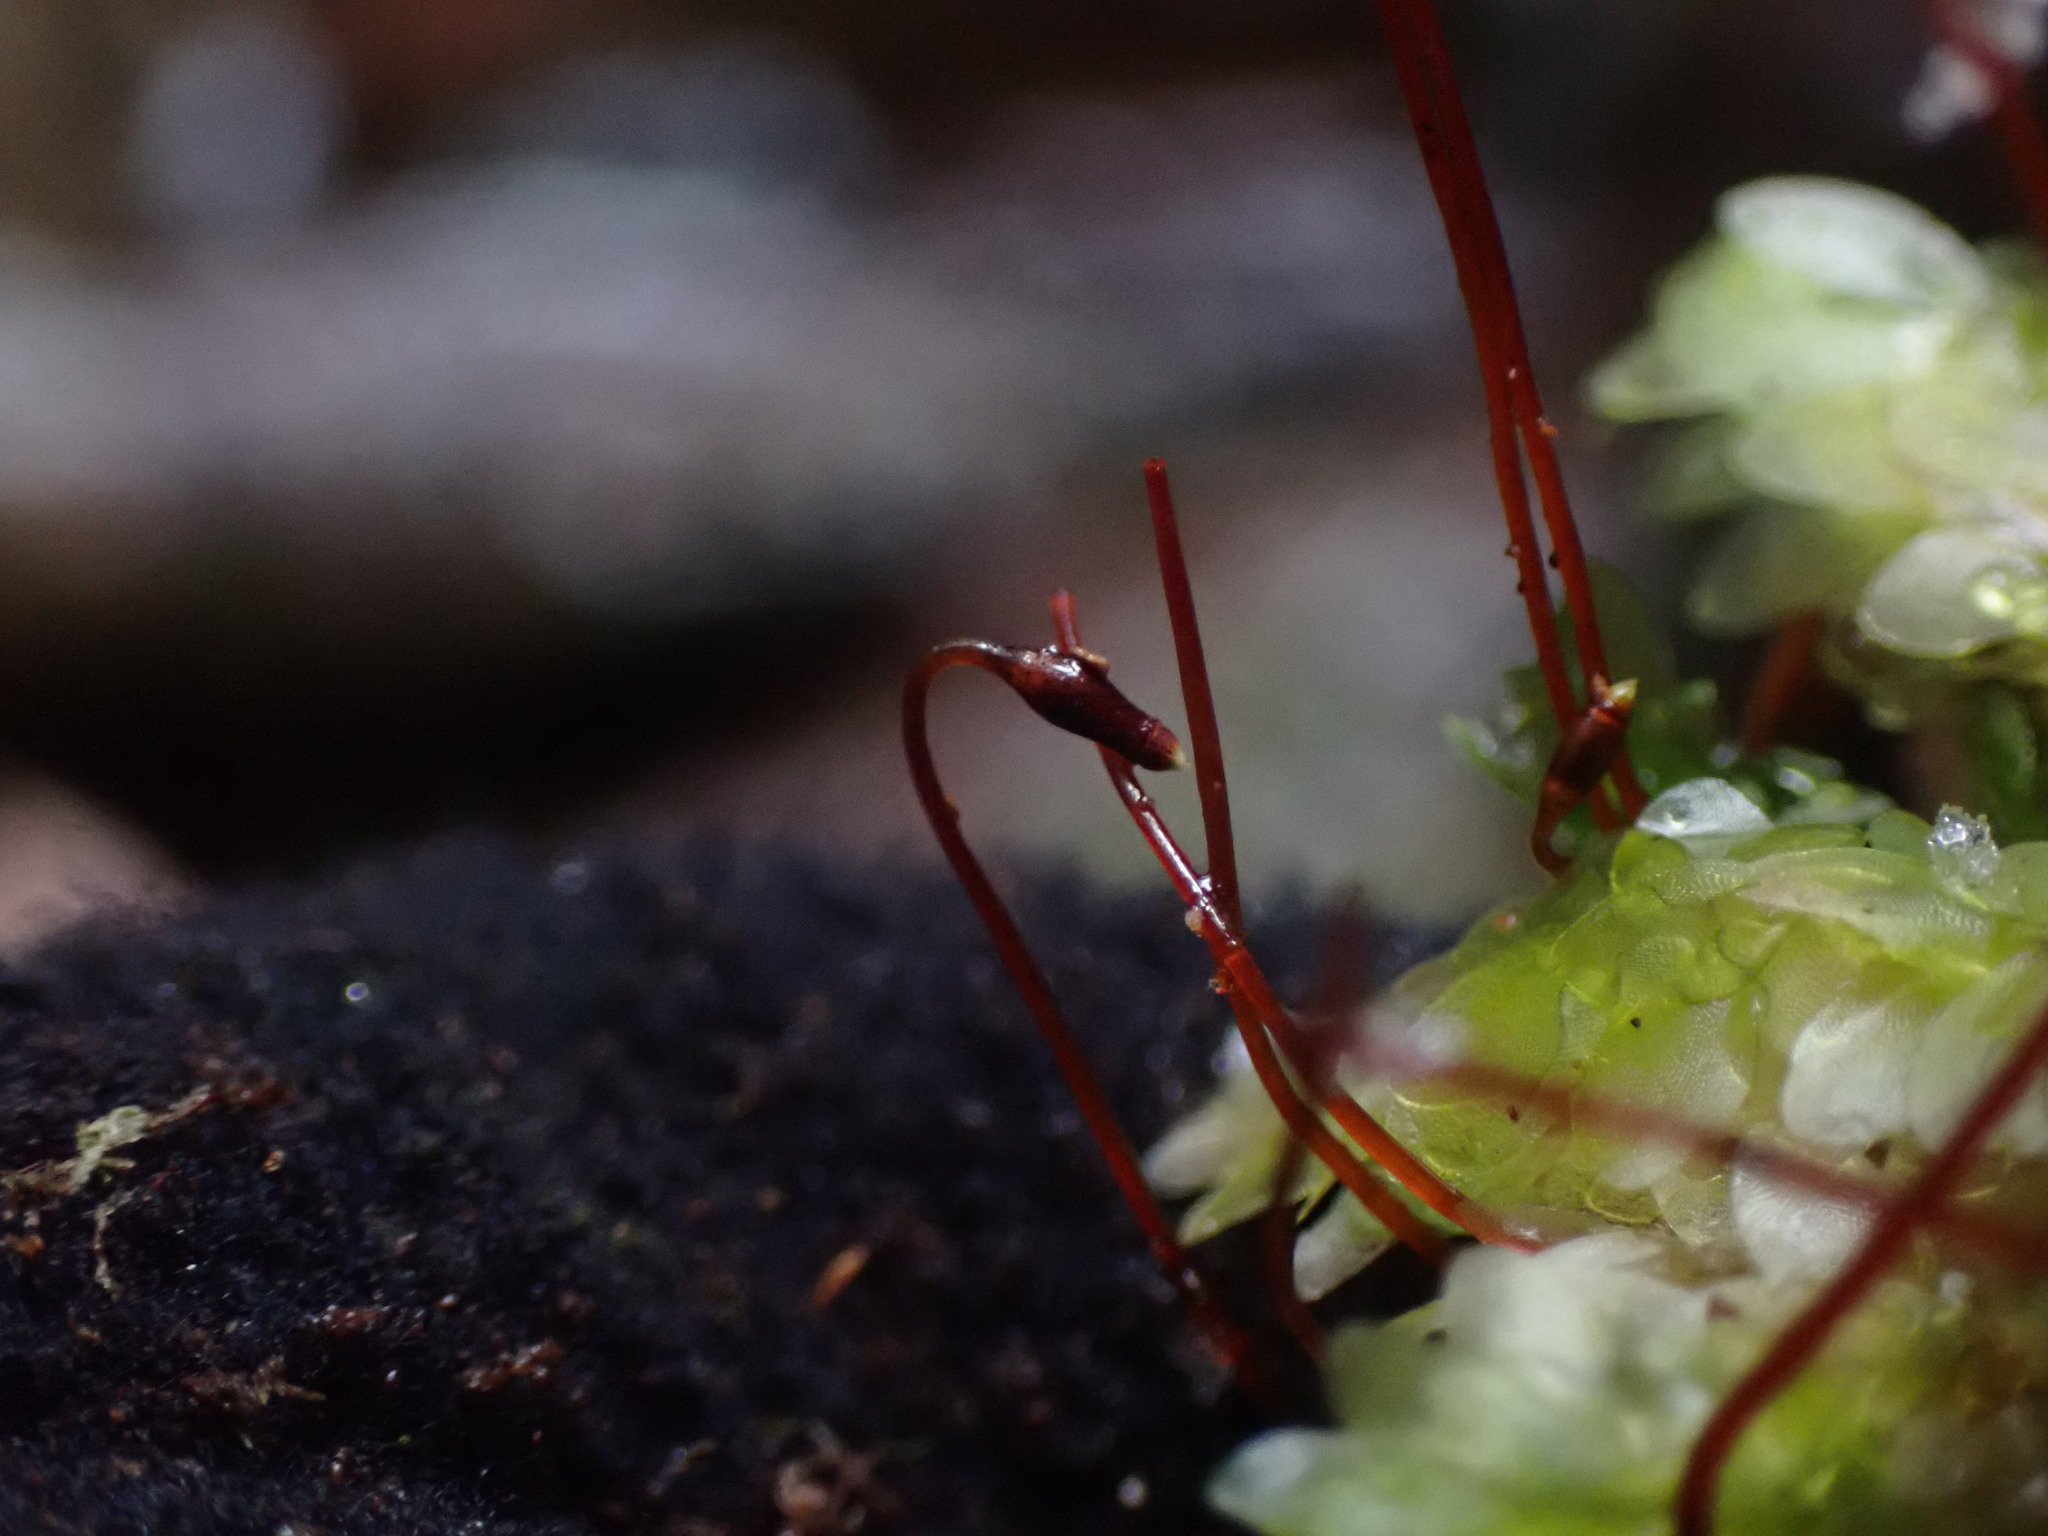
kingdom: Plantae
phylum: Bryophyta
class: Bryopsida
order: Hookeriales
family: Hookeriaceae
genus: Hookeria
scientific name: Hookeria lucens
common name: Shining hookeria
